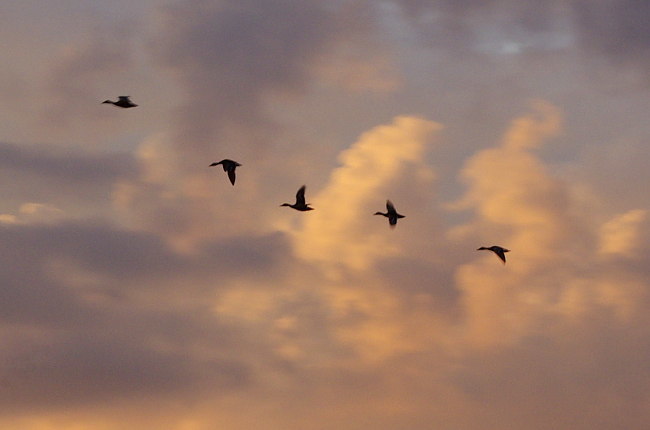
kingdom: Animalia
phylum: Chordata
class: Aves
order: Anseriformes
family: Anatidae
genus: Anas
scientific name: Anas platyrhynchos
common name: Mallard
